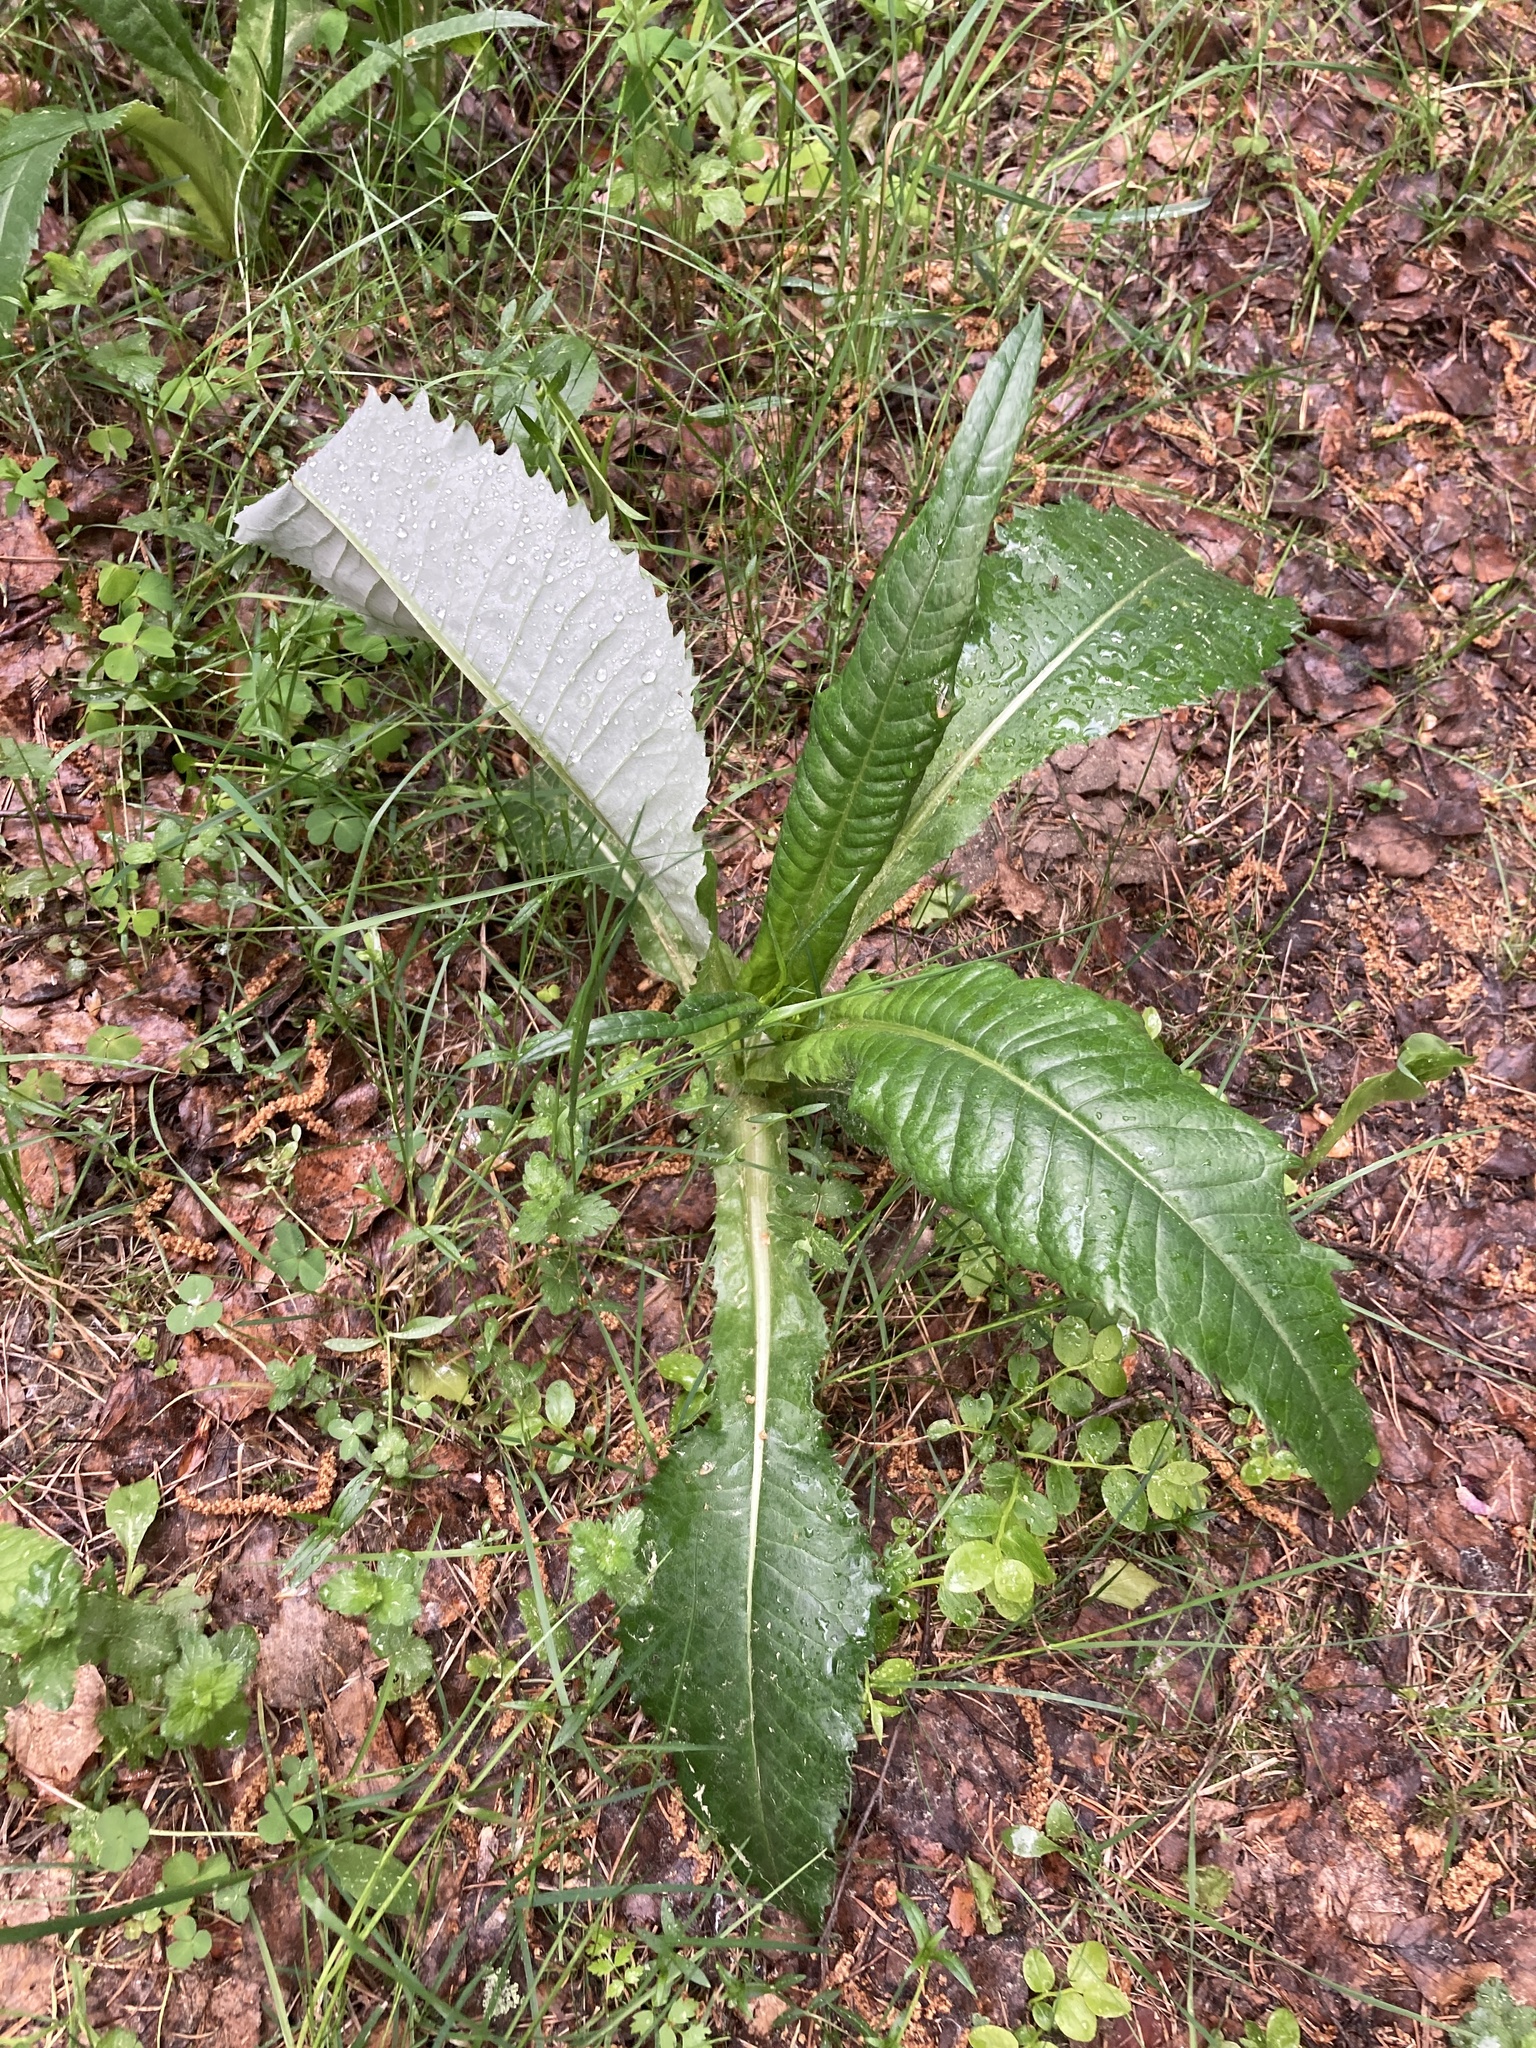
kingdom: Plantae
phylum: Tracheophyta
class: Magnoliopsida
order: Asterales
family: Asteraceae
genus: Cirsium
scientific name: Cirsium heterophyllum
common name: Melancholy thistle
